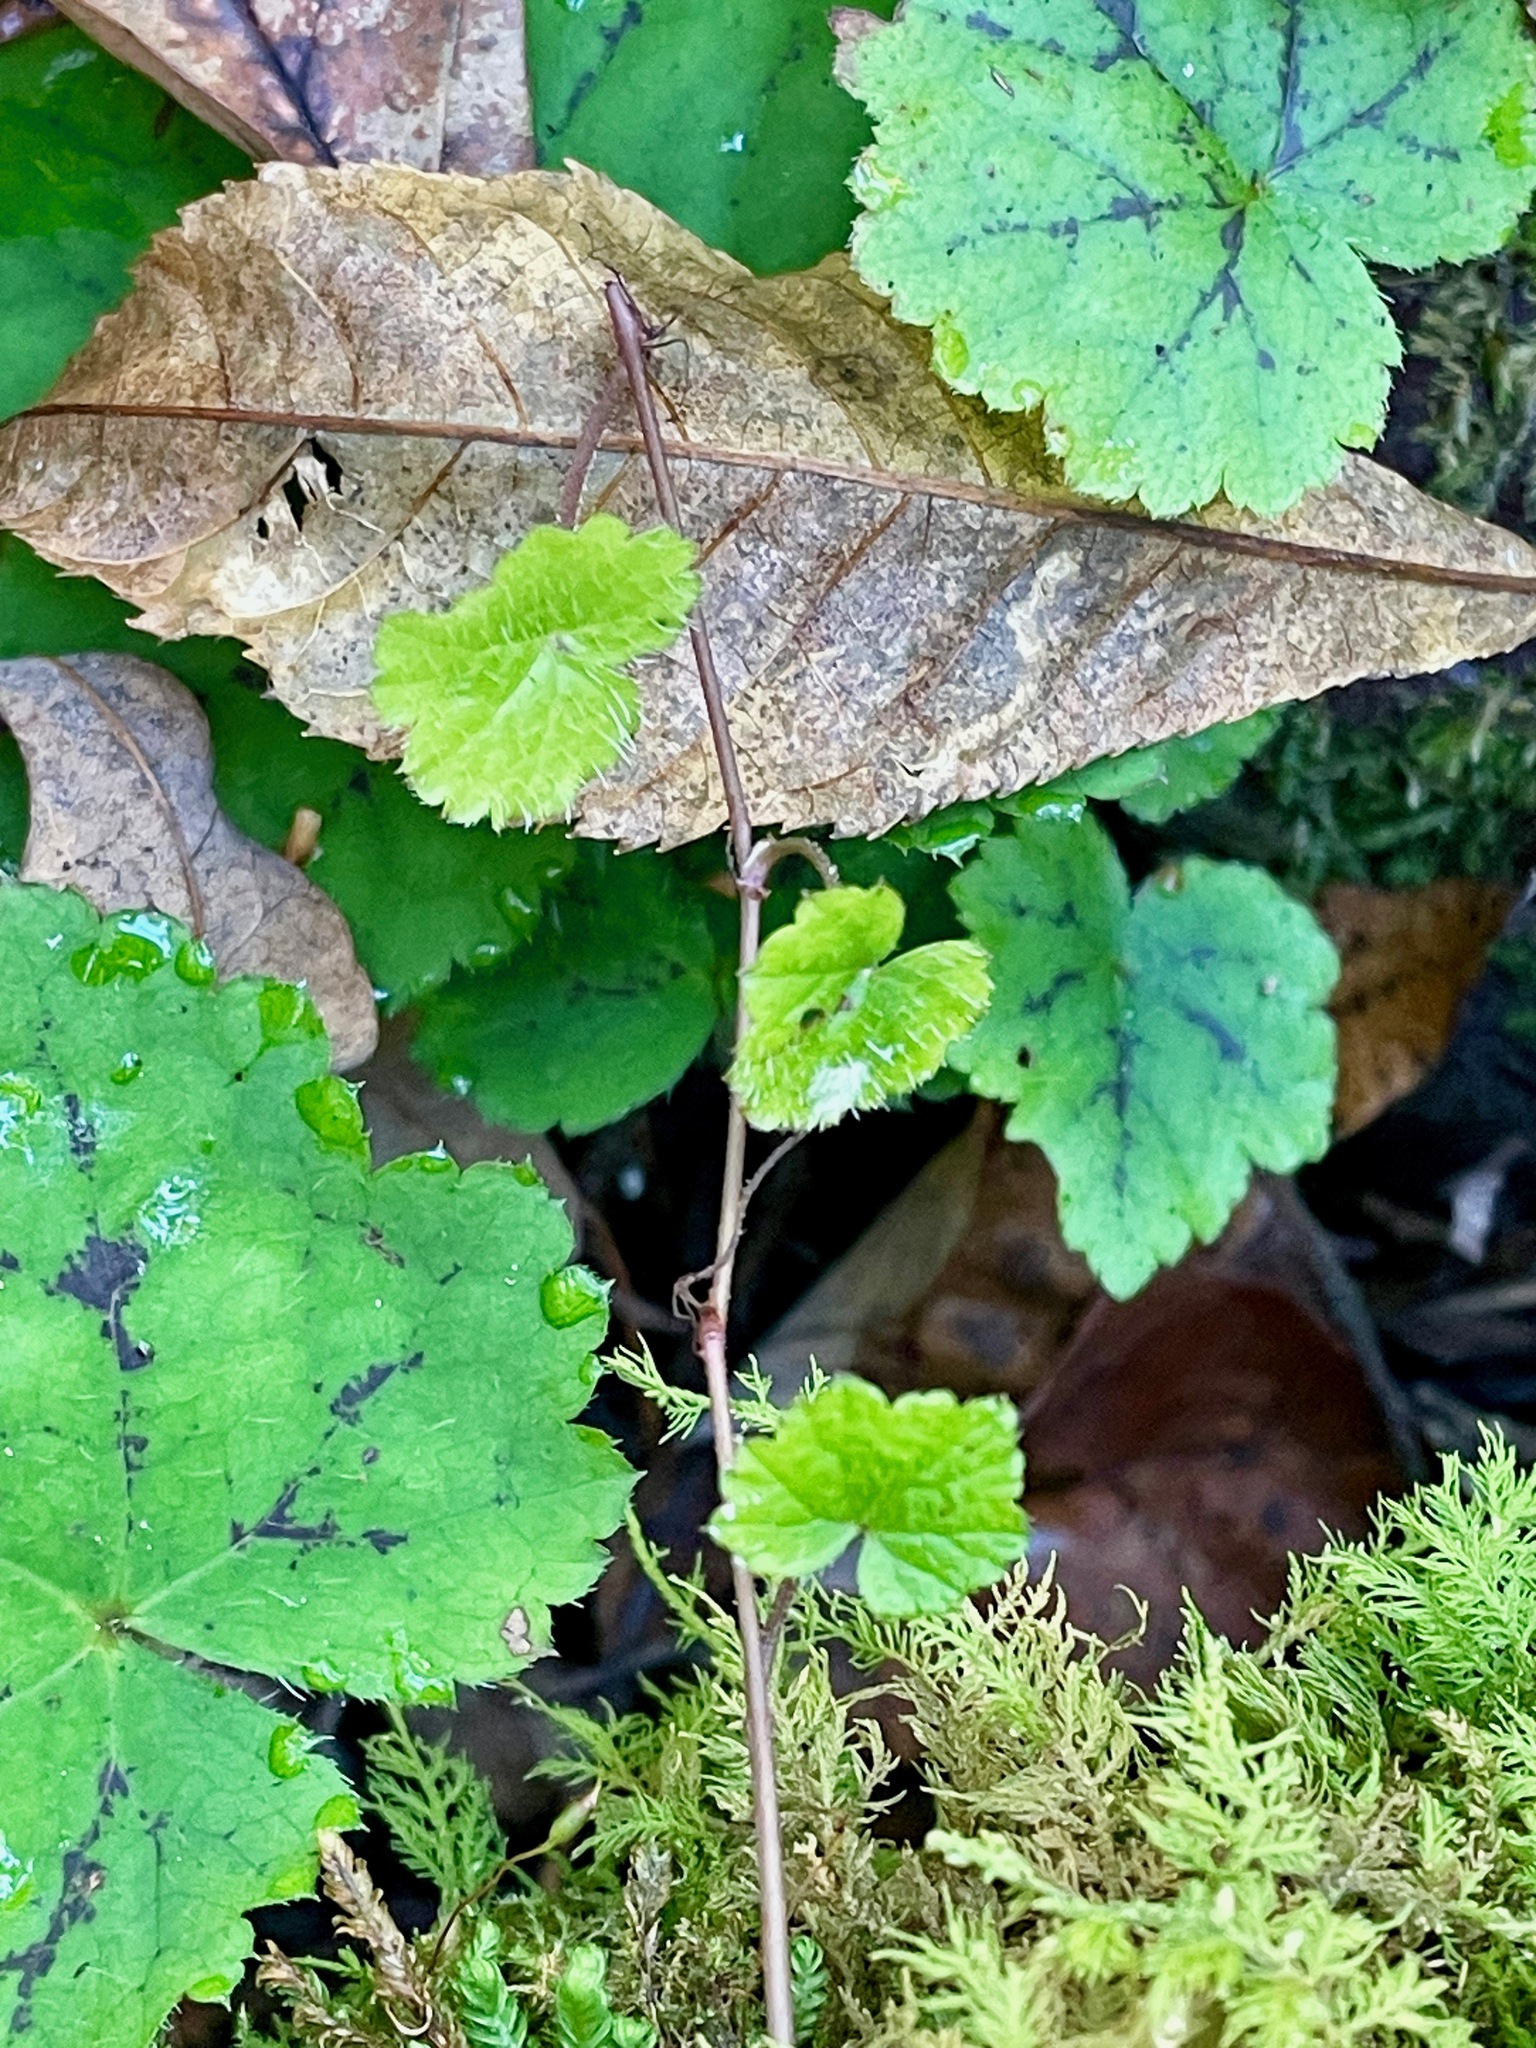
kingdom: Plantae
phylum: Tracheophyta
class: Magnoliopsida
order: Saxifragales
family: Saxifragaceae
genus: Tiarella
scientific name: Tiarella stolonifera
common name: Stoloniferous foamflower
